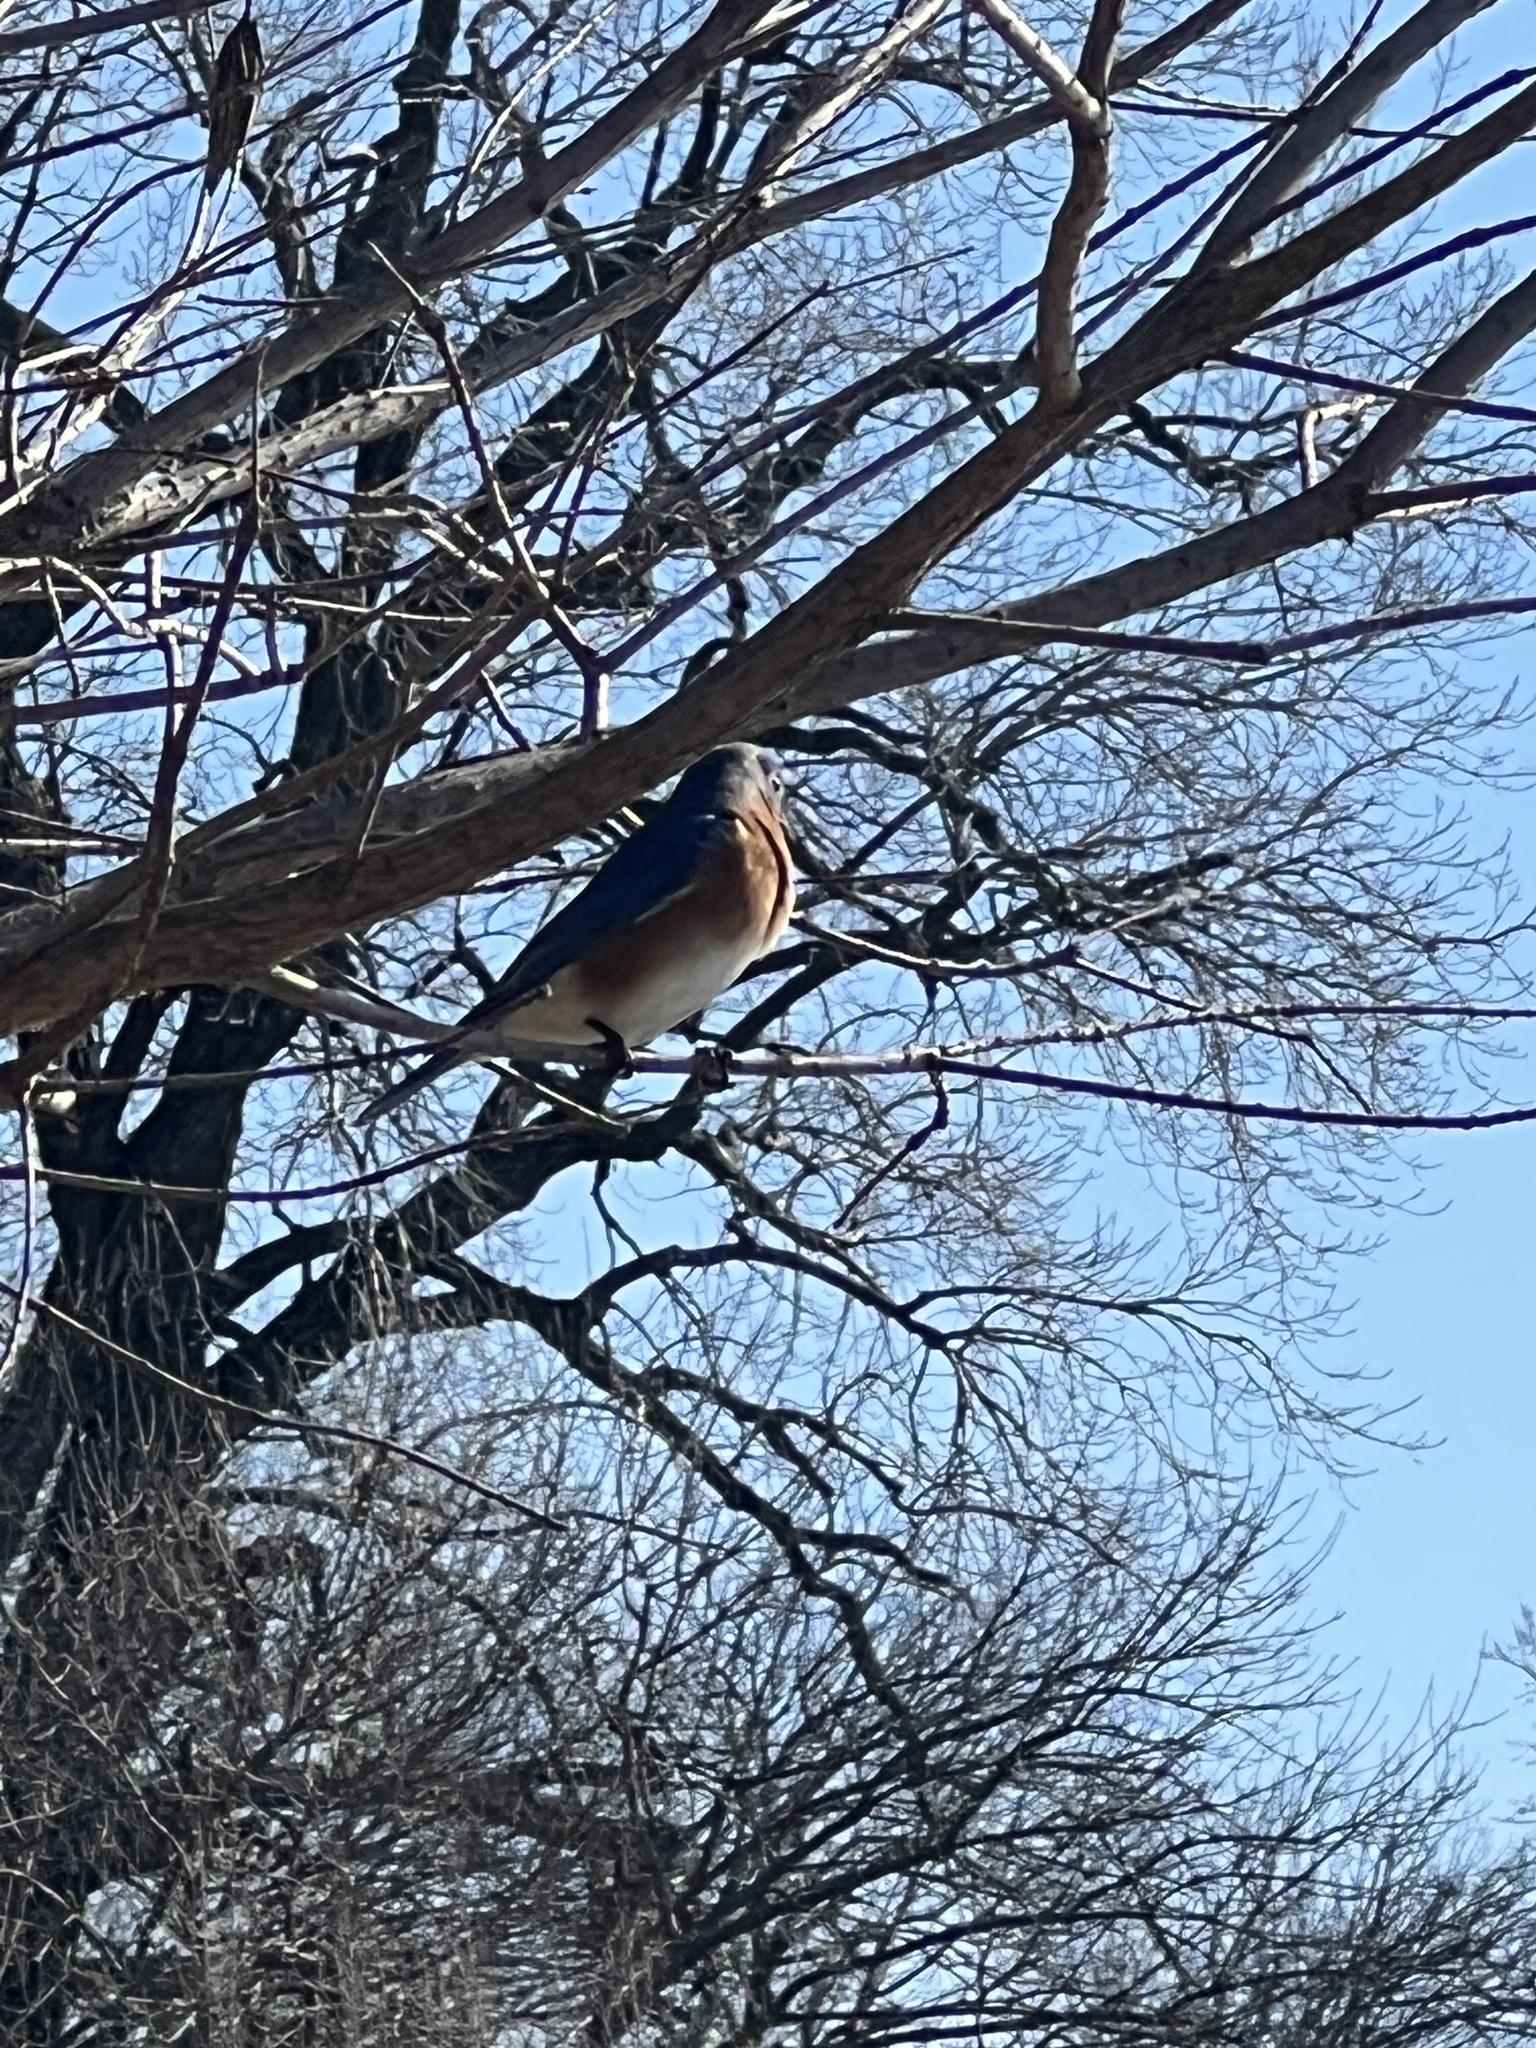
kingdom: Animalia
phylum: Chordata
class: Aves
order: Passeriformes
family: Turdidae
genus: Sialia
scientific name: Sialia sialis
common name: Eastern bluebird
